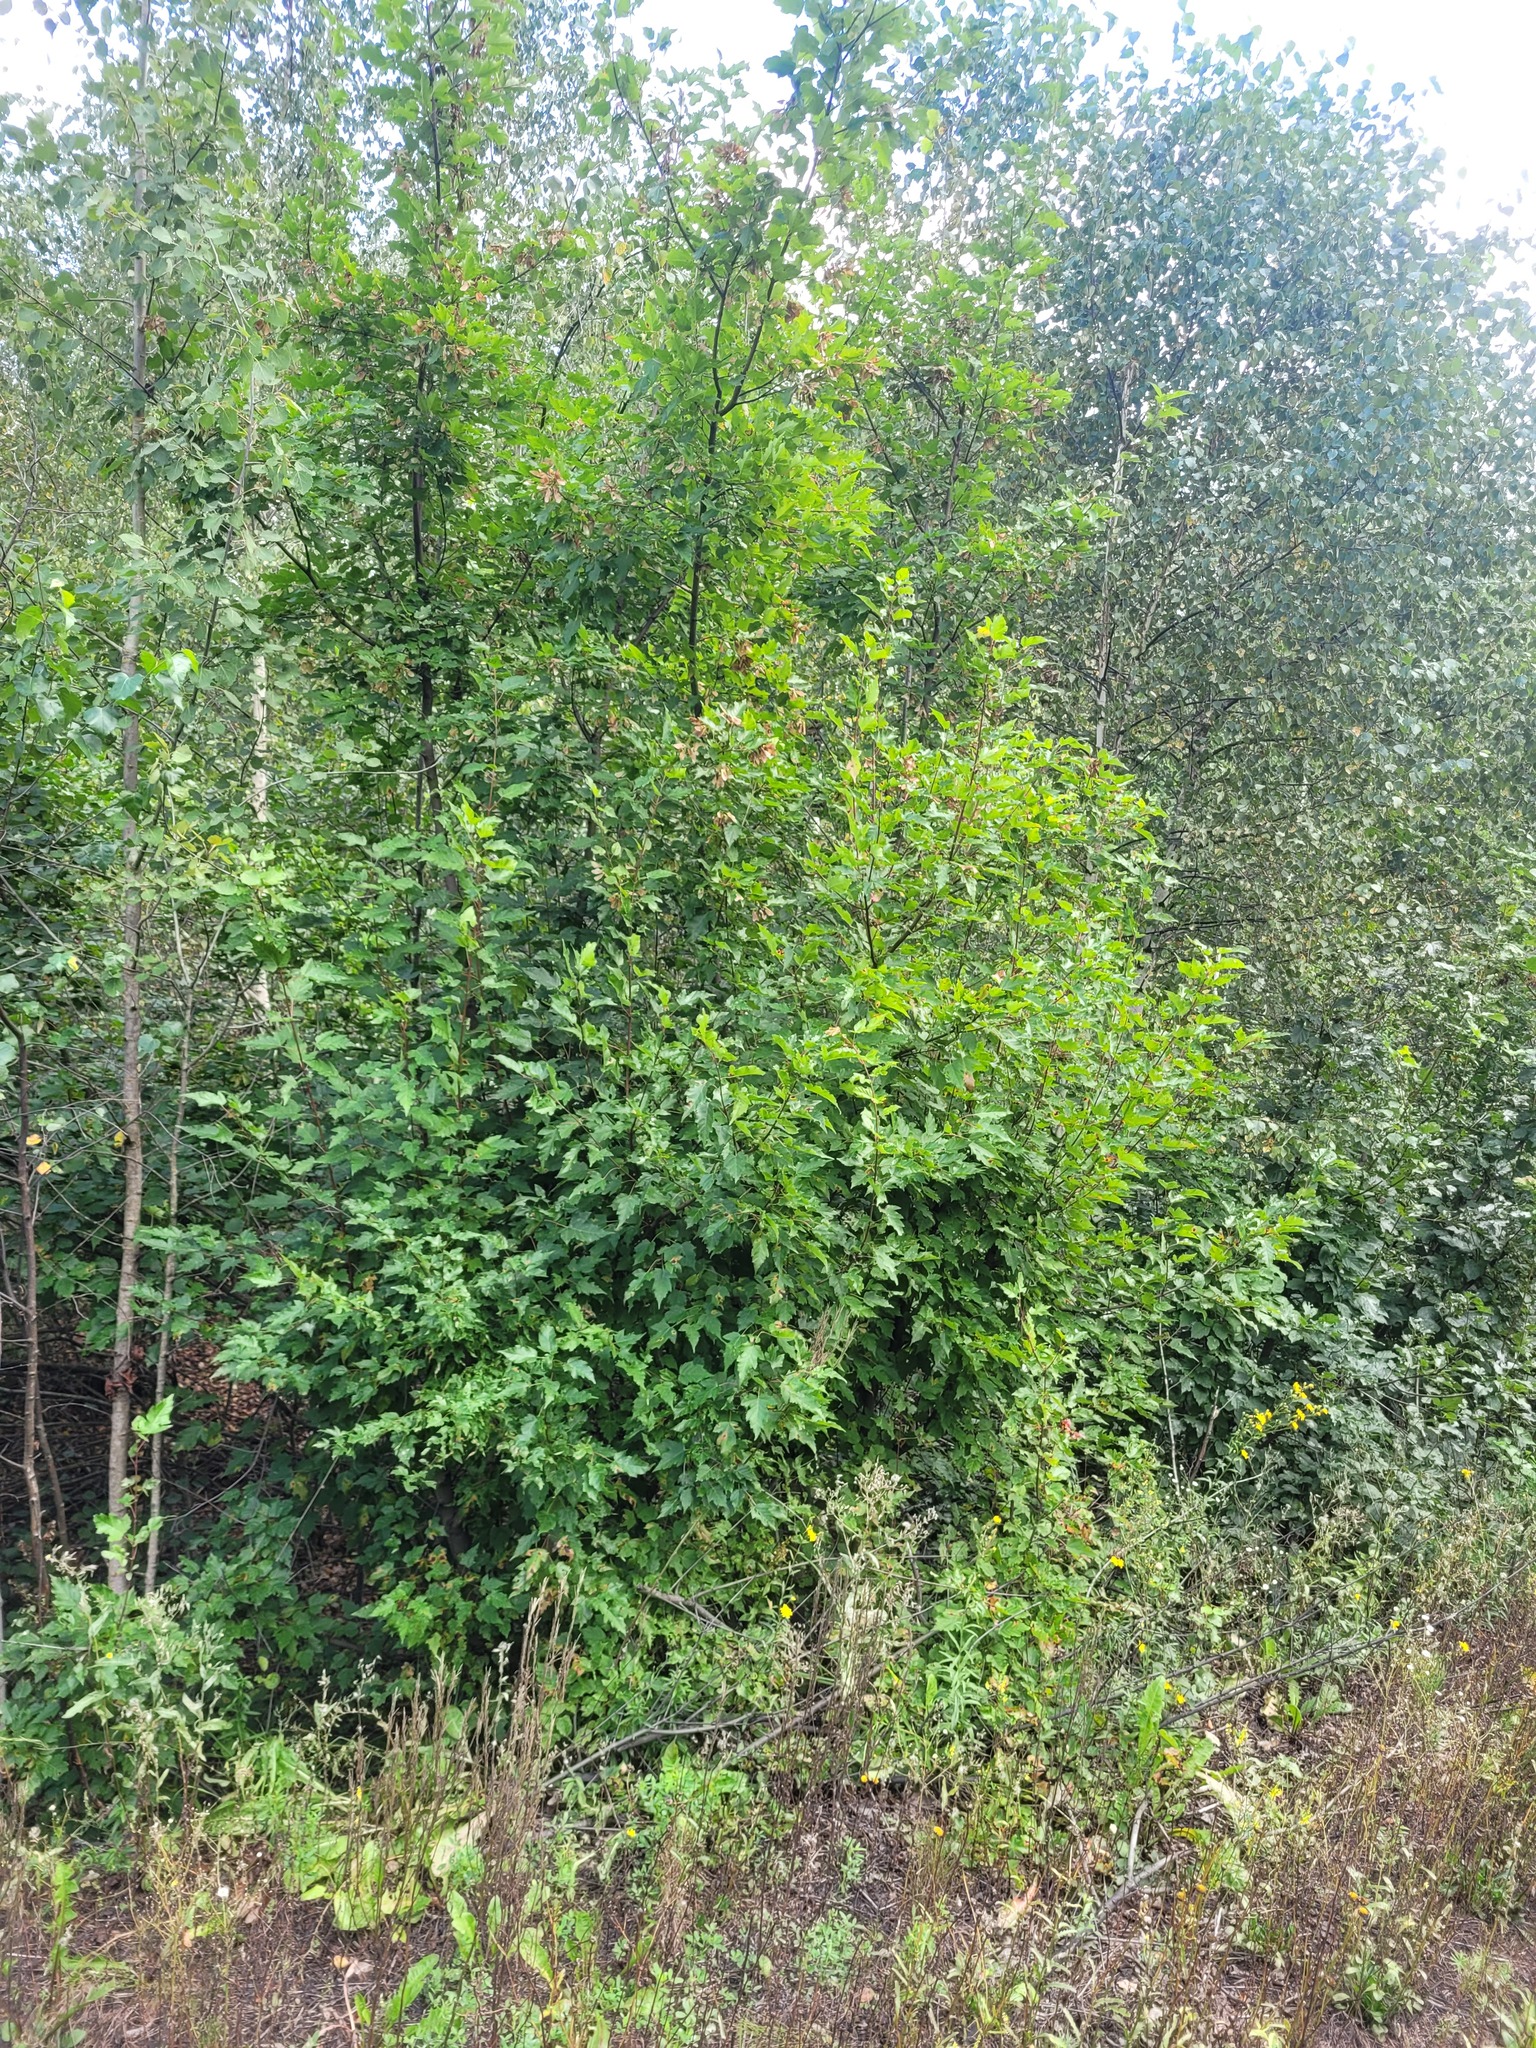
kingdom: Plantae
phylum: Tracheophyta
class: Magnoliopsida
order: Sapindales
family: Sapindaceae
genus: Acer
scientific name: Acer tataricum
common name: Tartar maple
